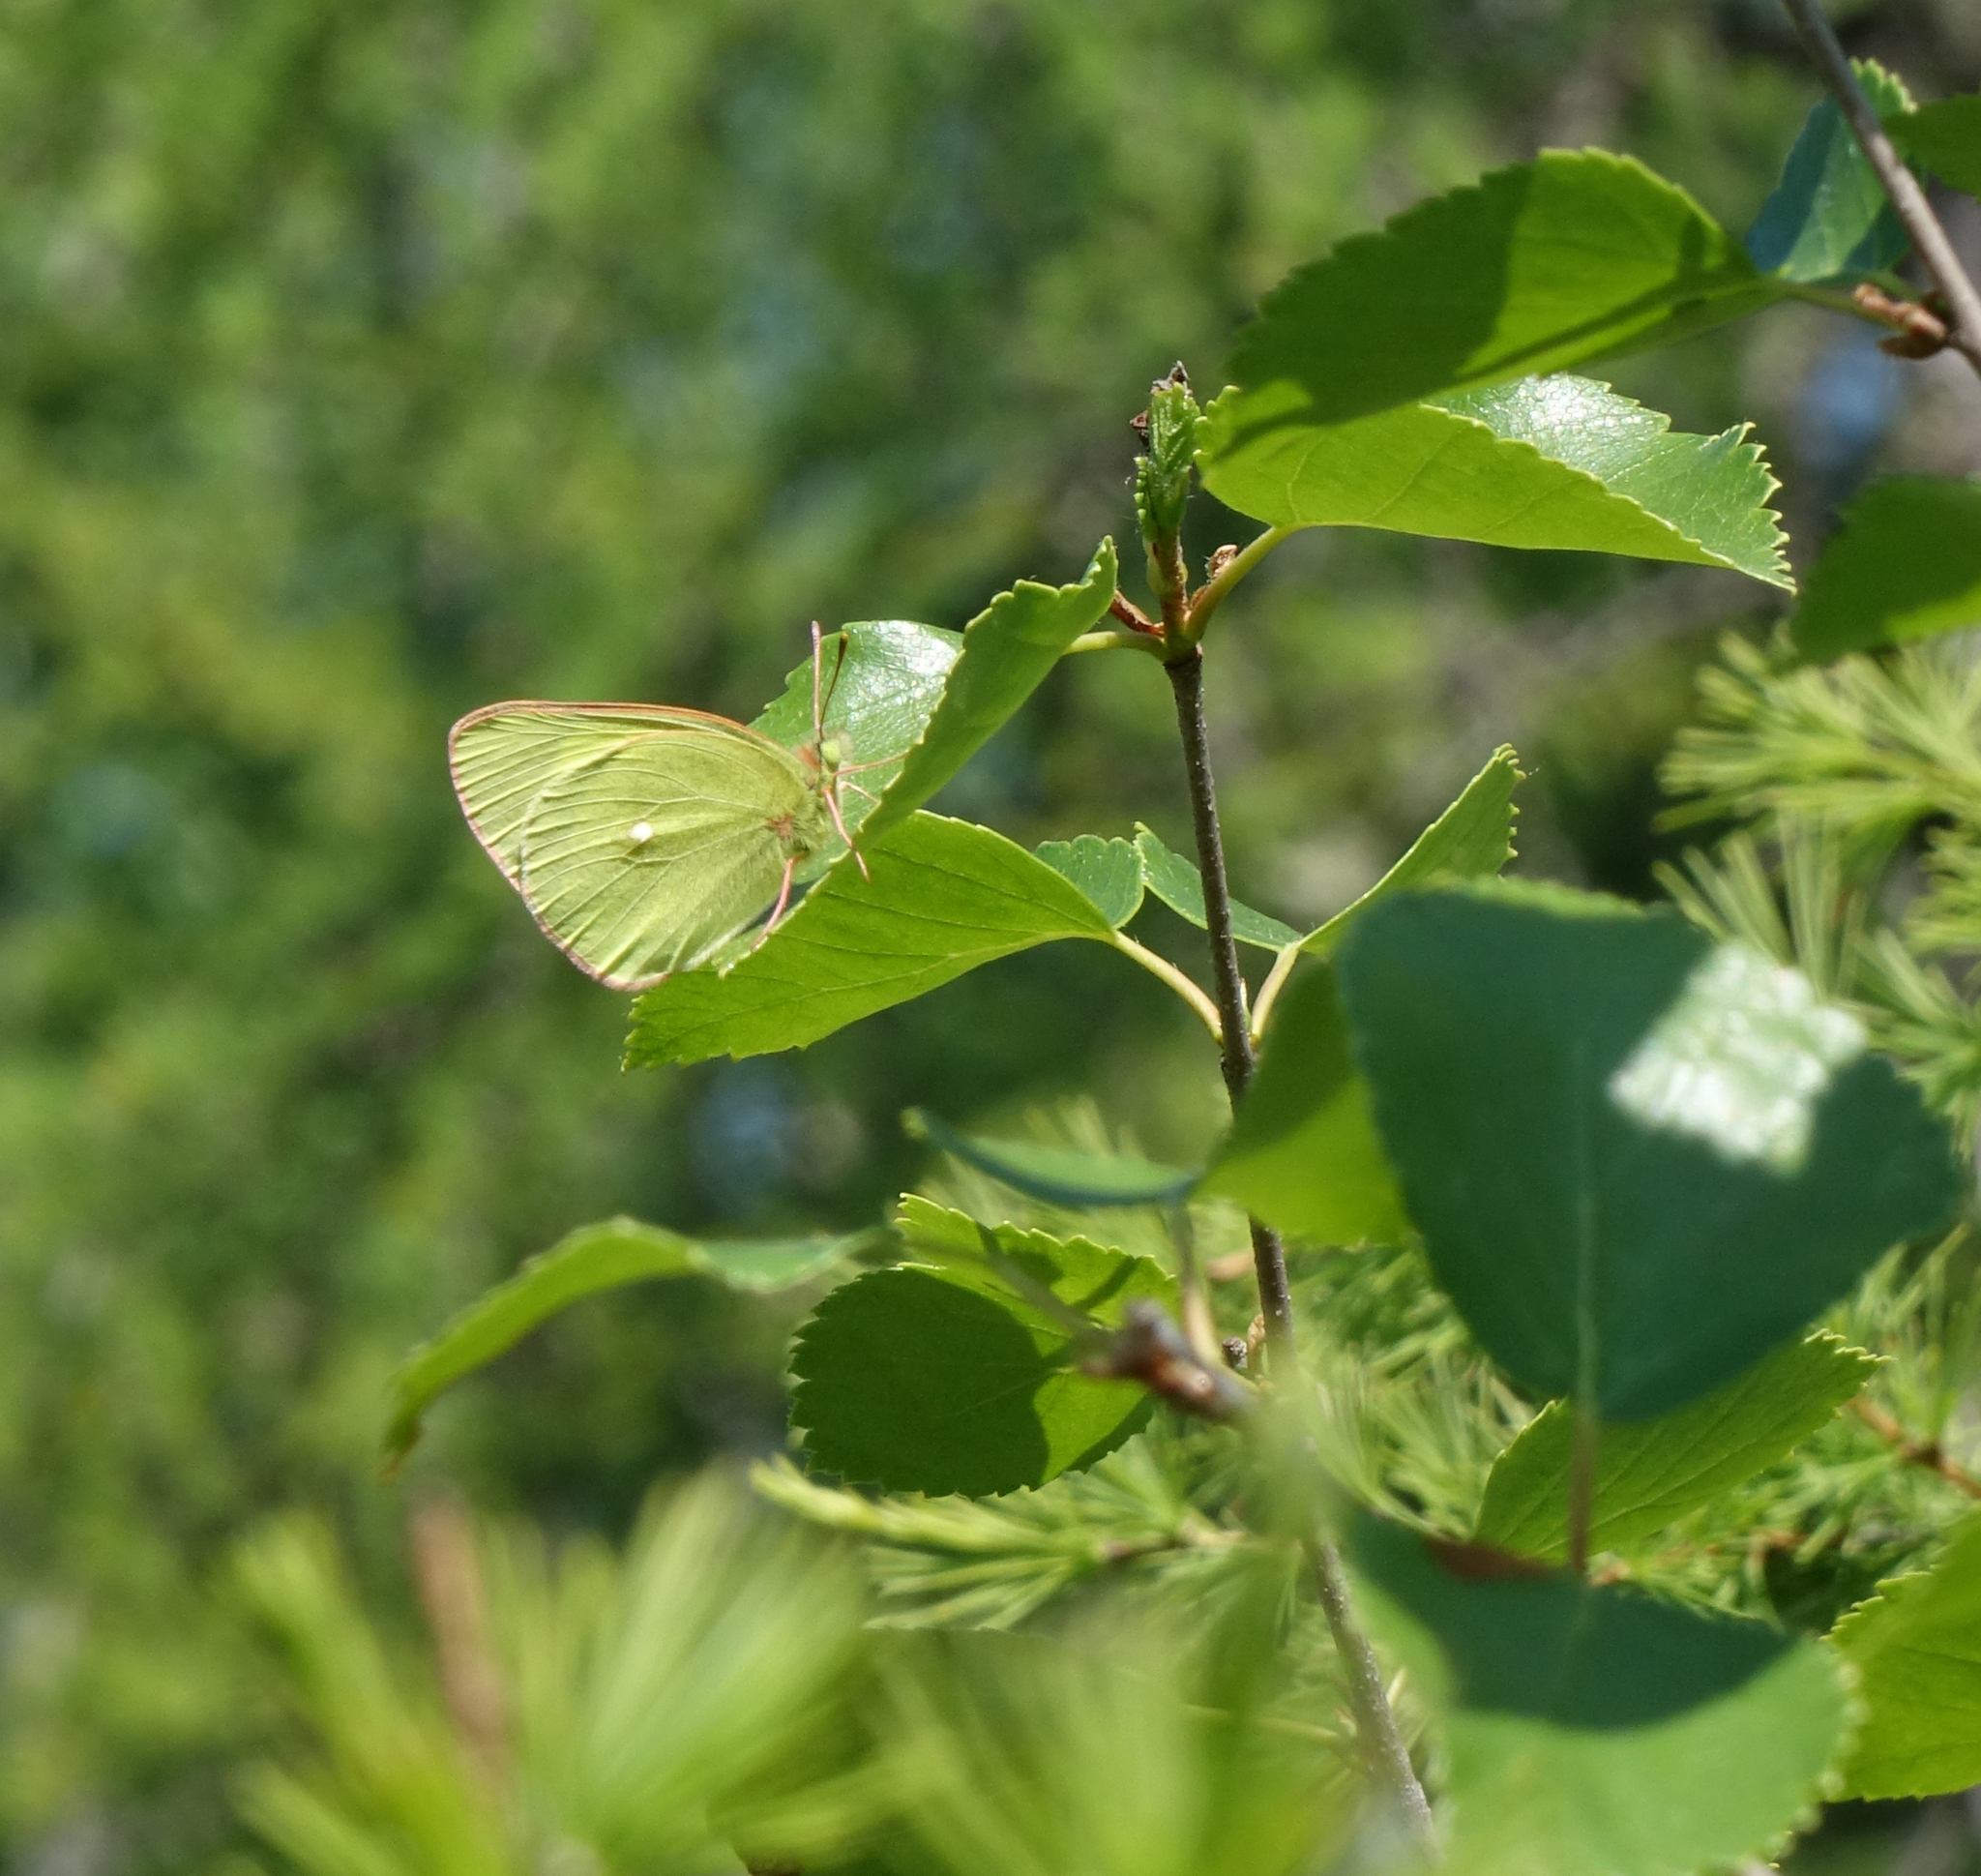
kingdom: Animalia
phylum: Arthropoda
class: Insecta
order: Lepidoptera
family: Pieridae
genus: Colias
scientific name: Colias palaeno
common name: Moorland clouded yellow
